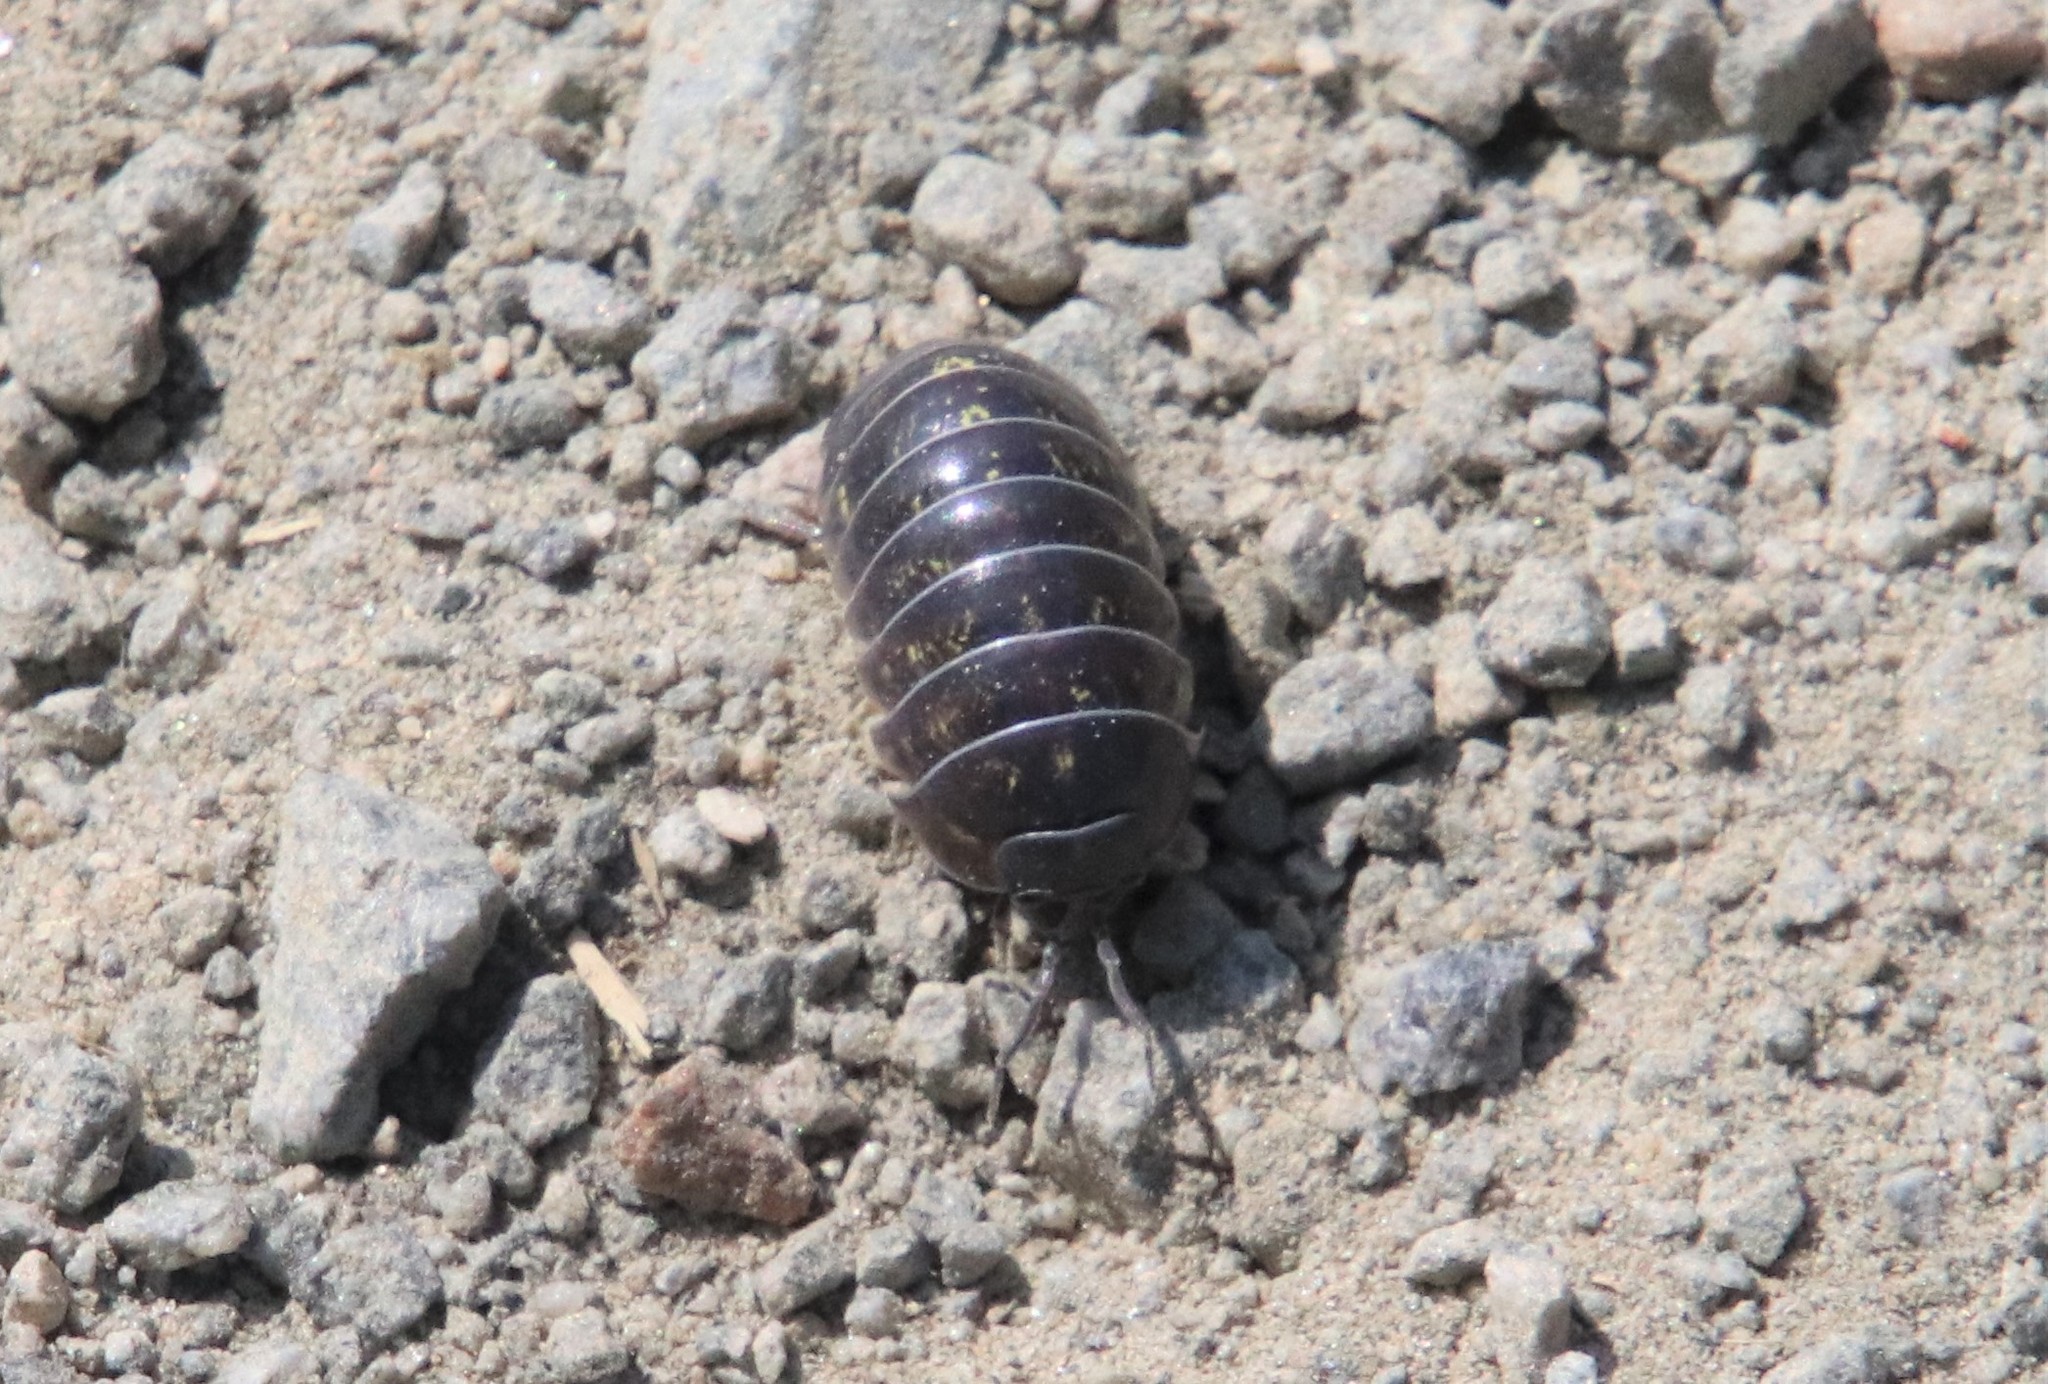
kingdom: Animalia
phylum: Arthropoda
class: Malacostraca
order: Isopoda
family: Armadillidiidae
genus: Armadillidium
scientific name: Armadillidium vulgare
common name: Common pill woodlouse
